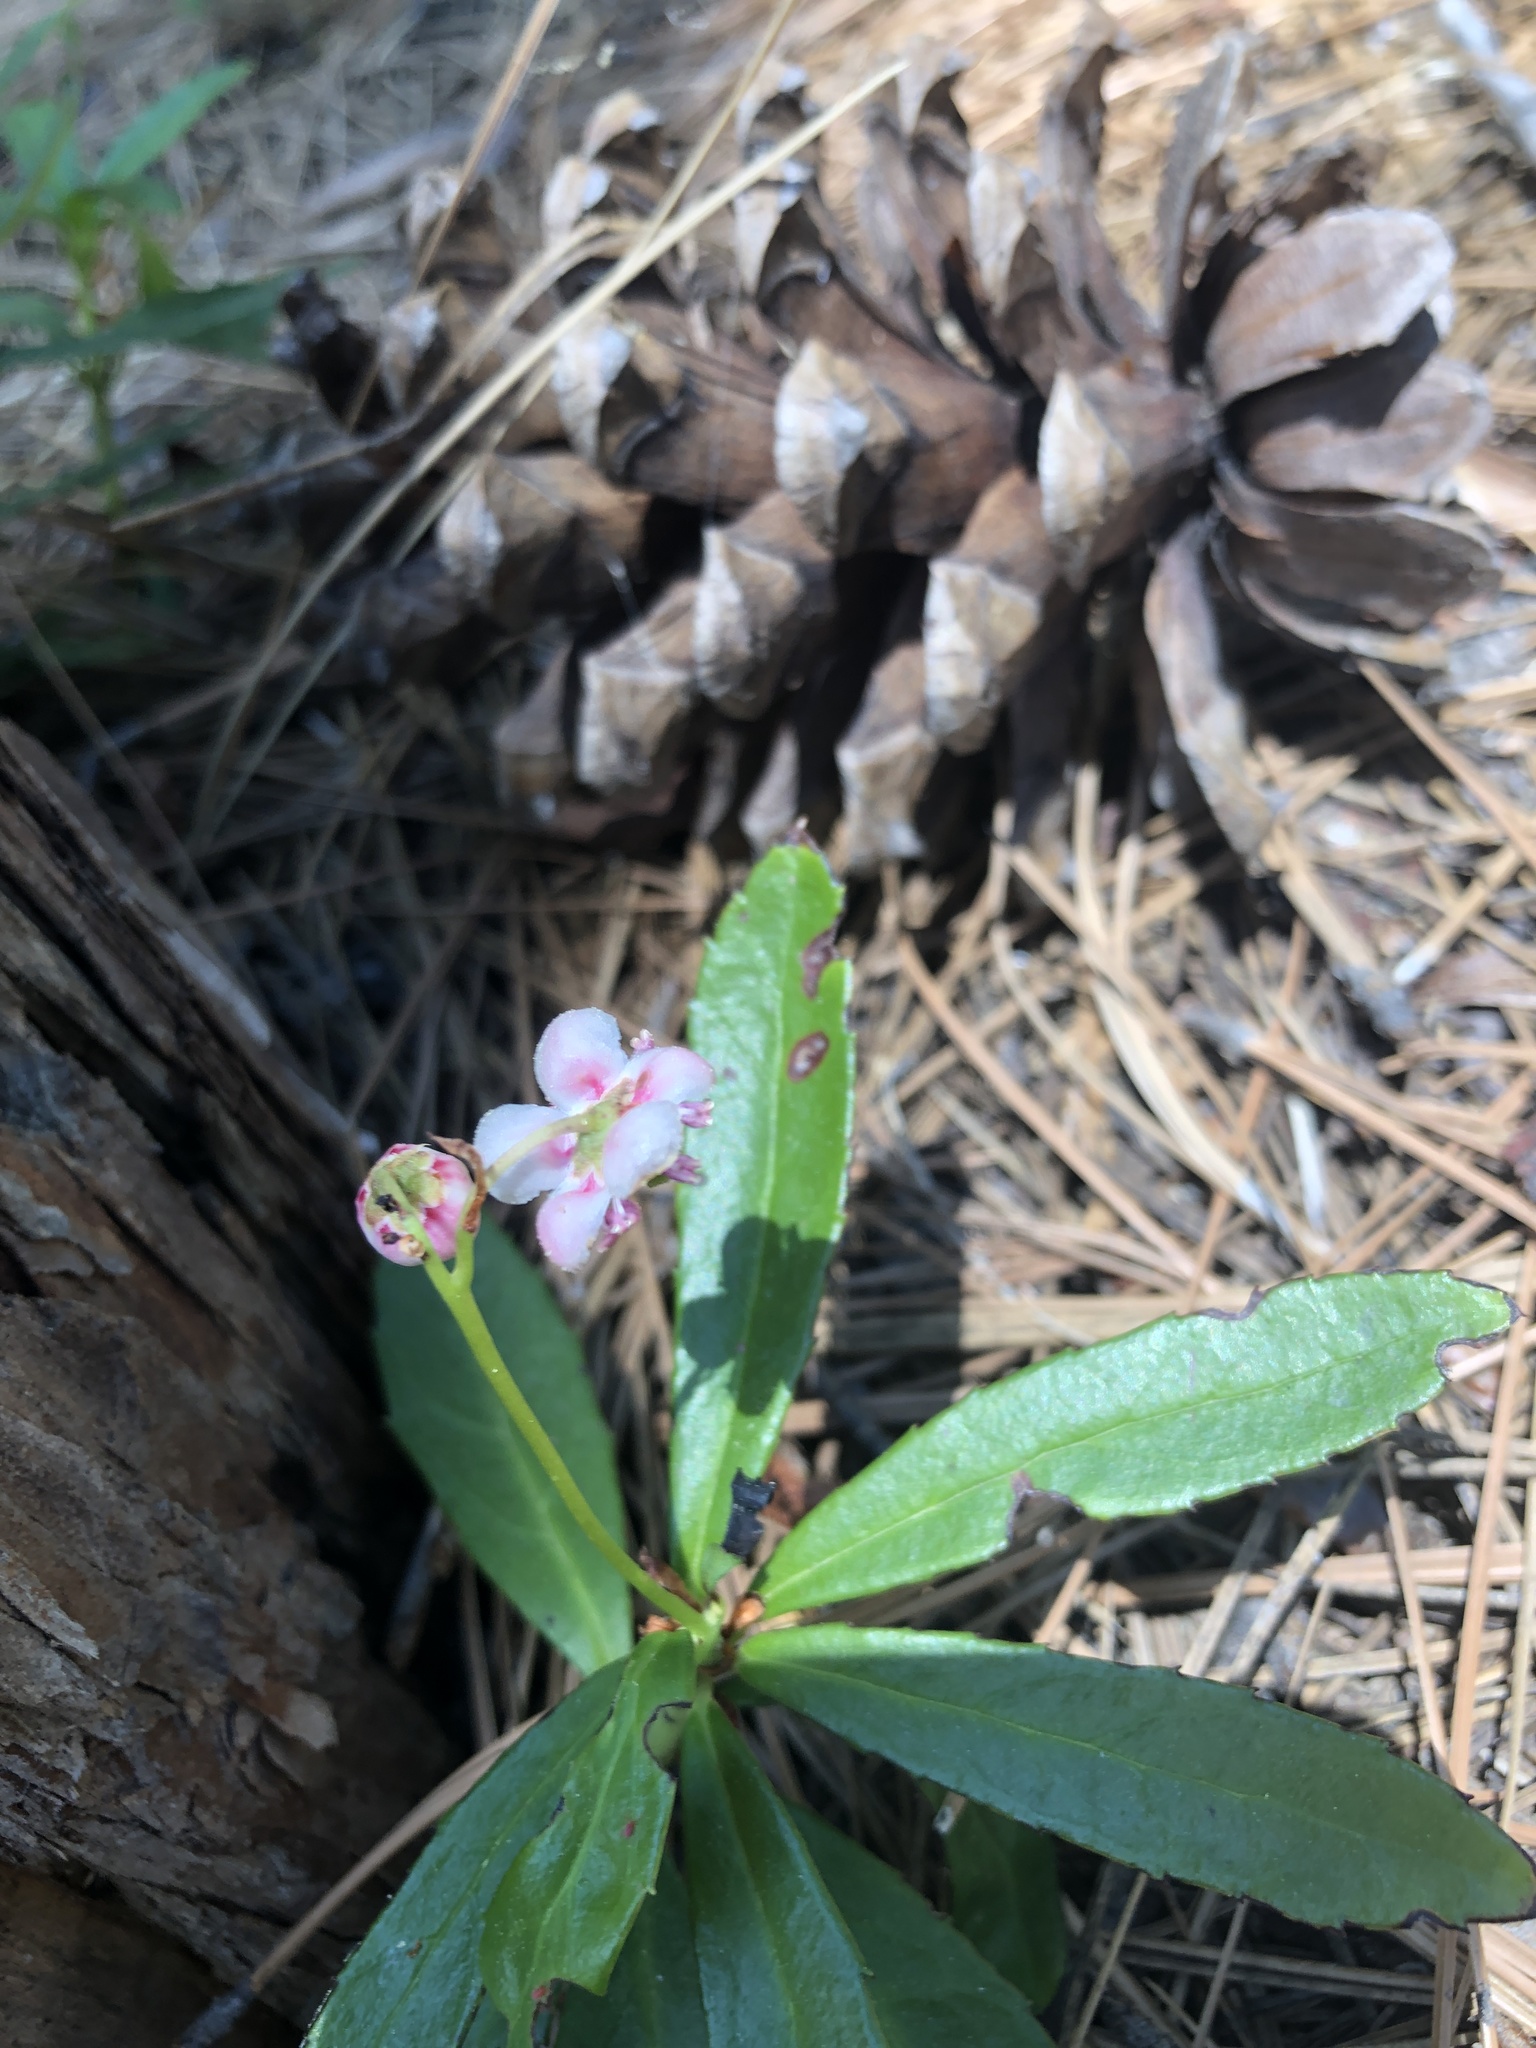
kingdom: Plantae
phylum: Tracheophyta
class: Magnoliopsida
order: Ericales
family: Ericaceae
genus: Chimaphila
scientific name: Chimaphila umbellata
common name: Pipsissewa
